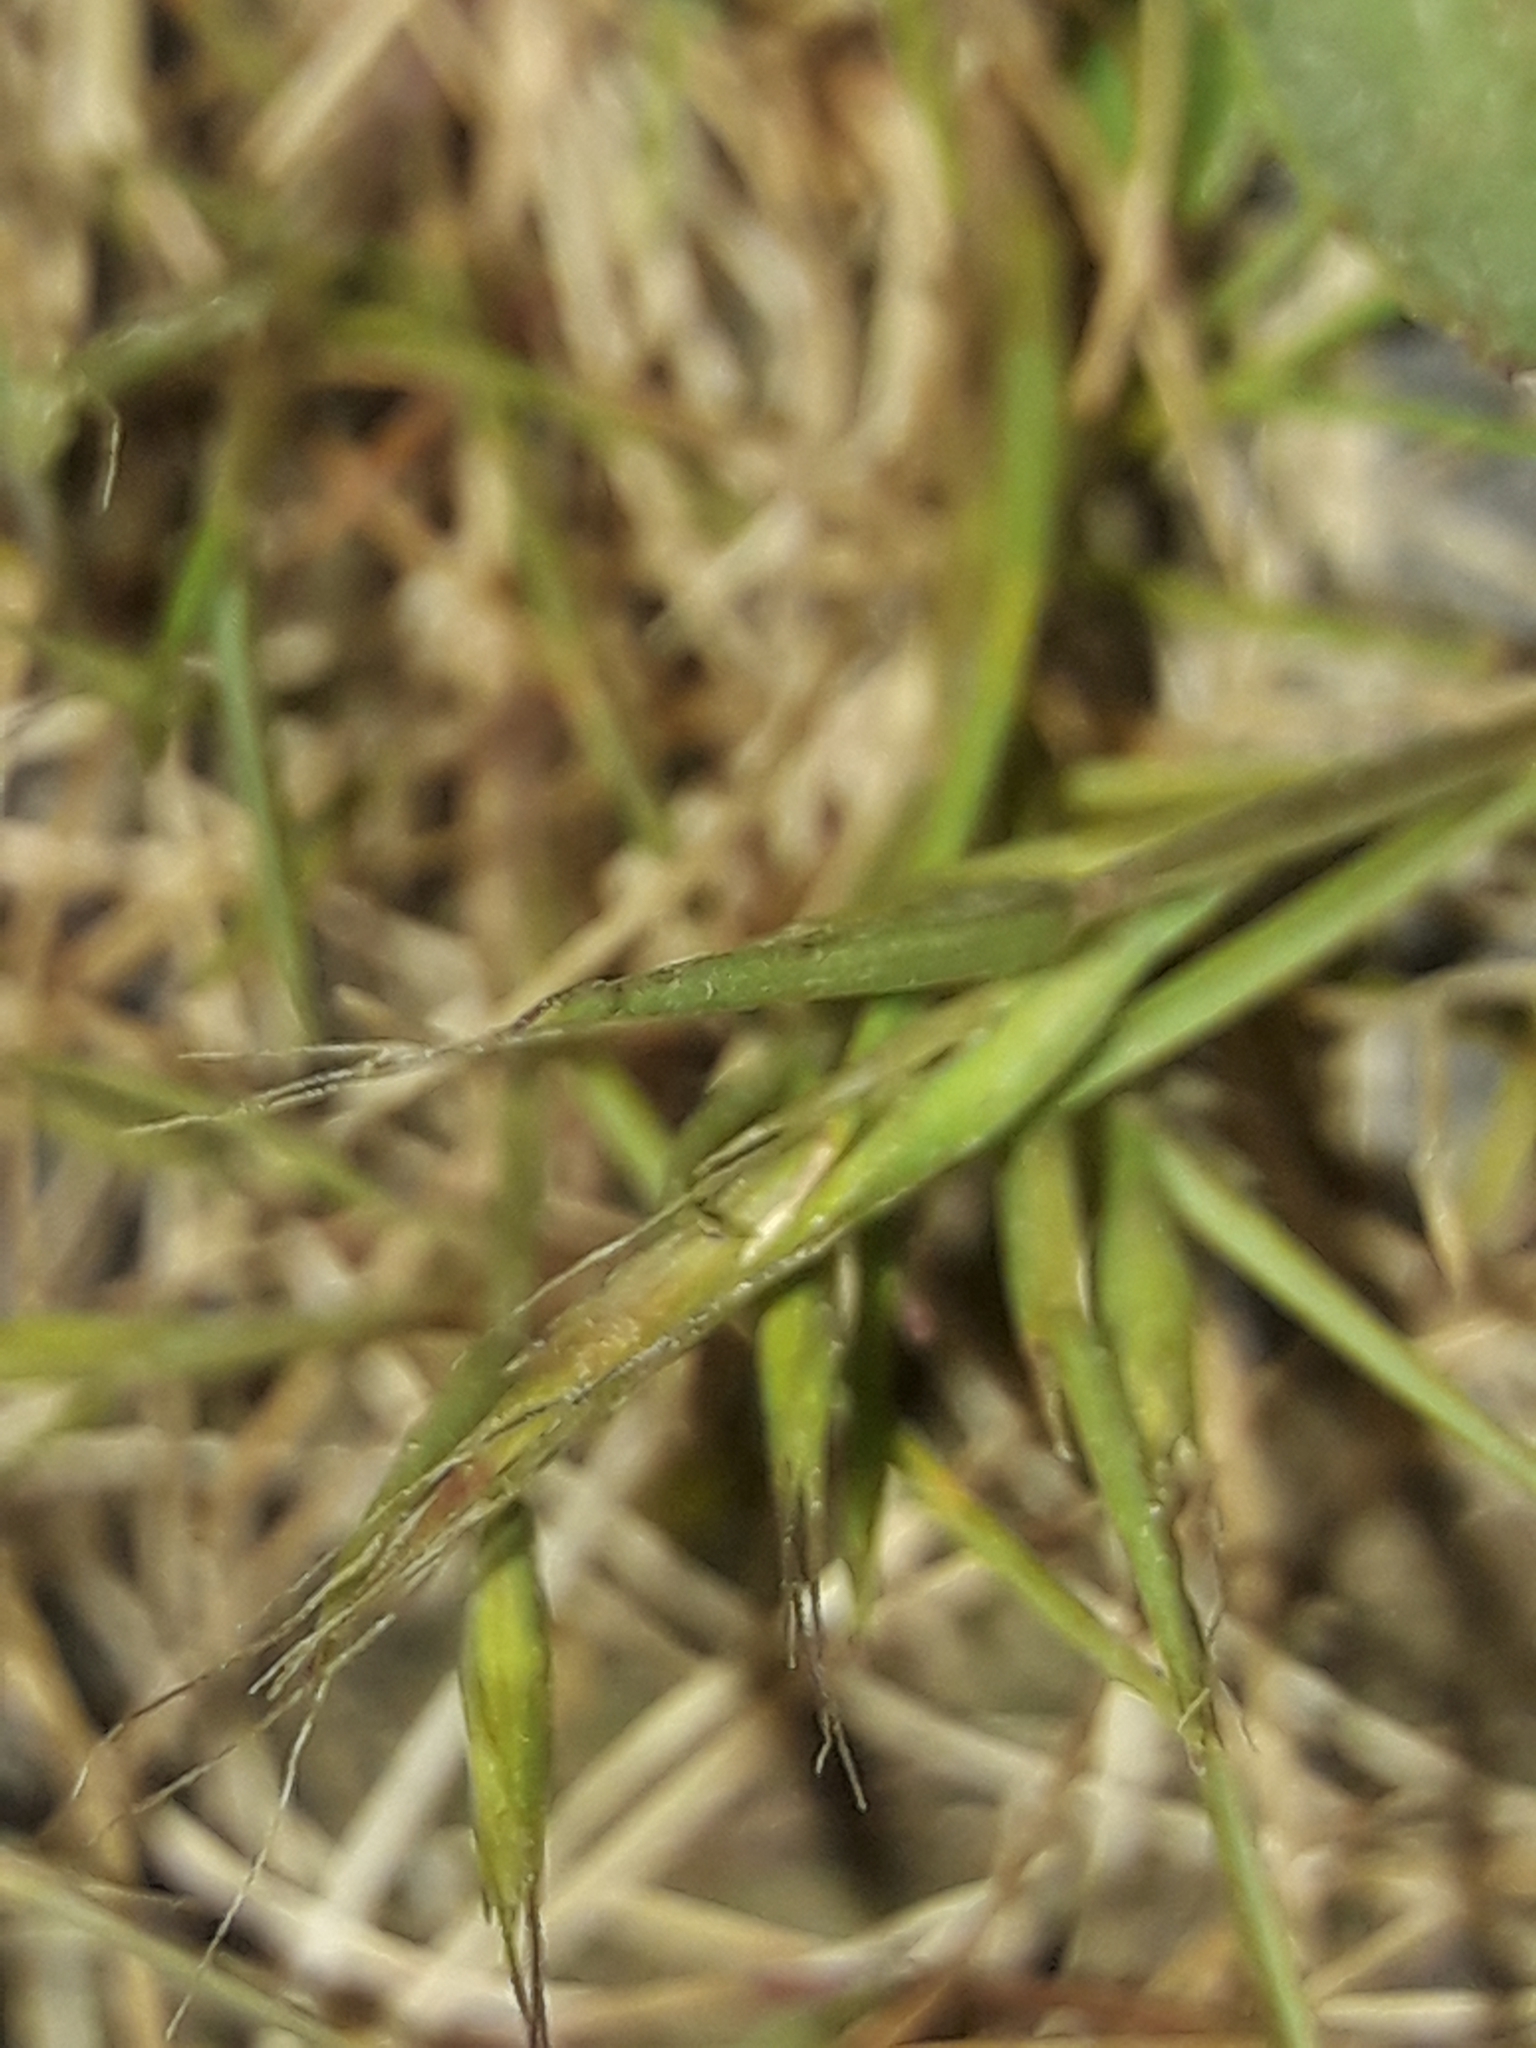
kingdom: Plantae
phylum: Tracheophyta
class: Liliopsida
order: Poales
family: Poaceae
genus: Festuca
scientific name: Festuca bromoides
